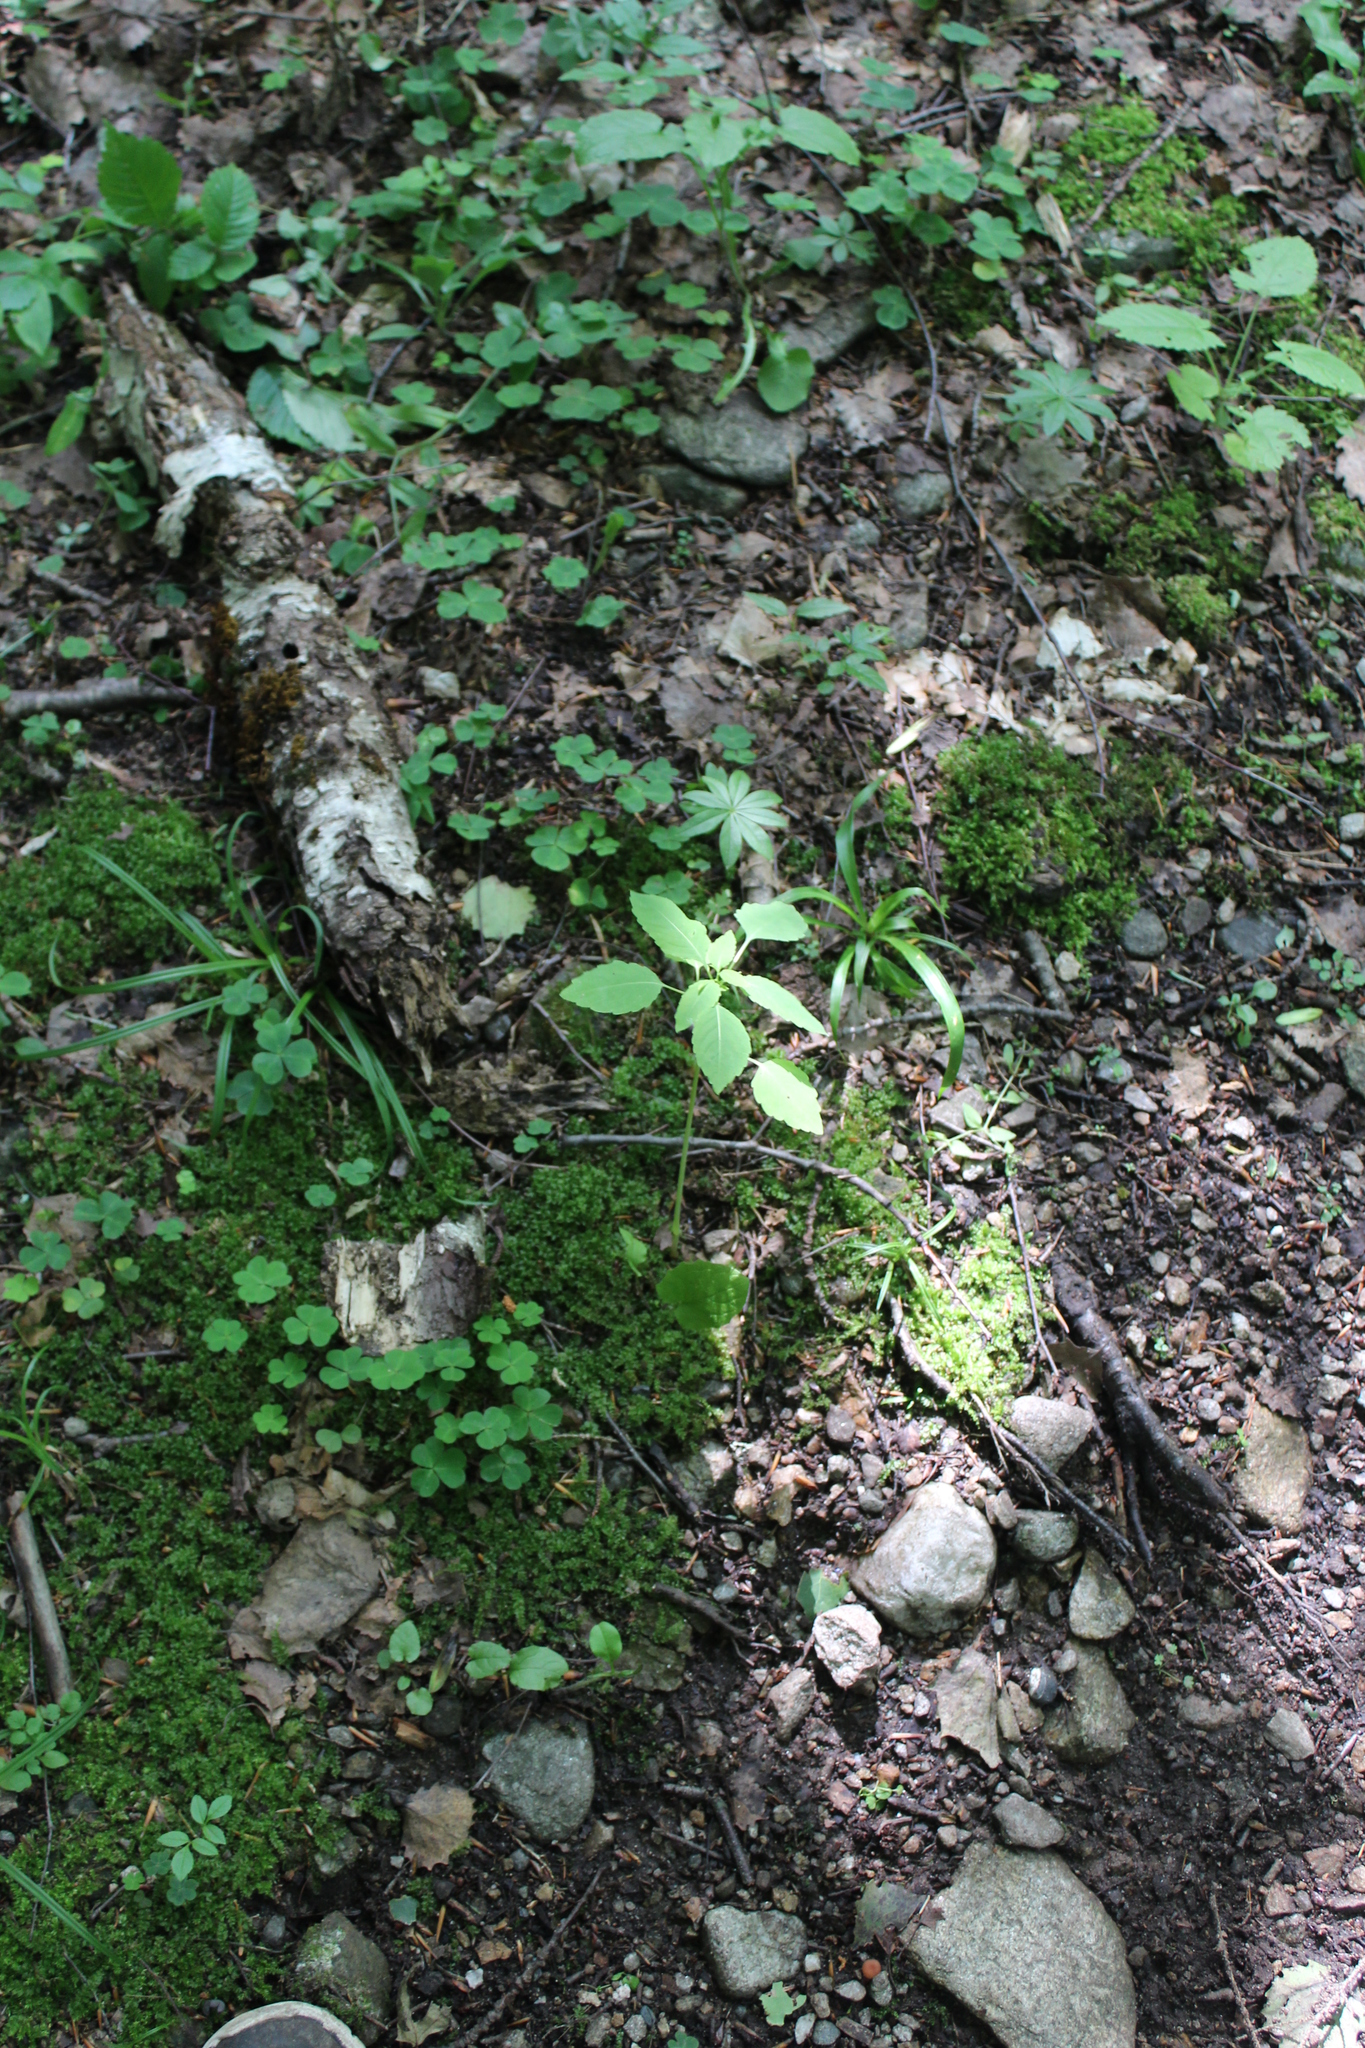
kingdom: Plantae
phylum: Tracheophyta
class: Magnoliopsida
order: Ericales
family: Balsaminaceae
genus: Impatiens
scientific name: Impatiens noli-tangere
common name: Touch-me-not balsam
